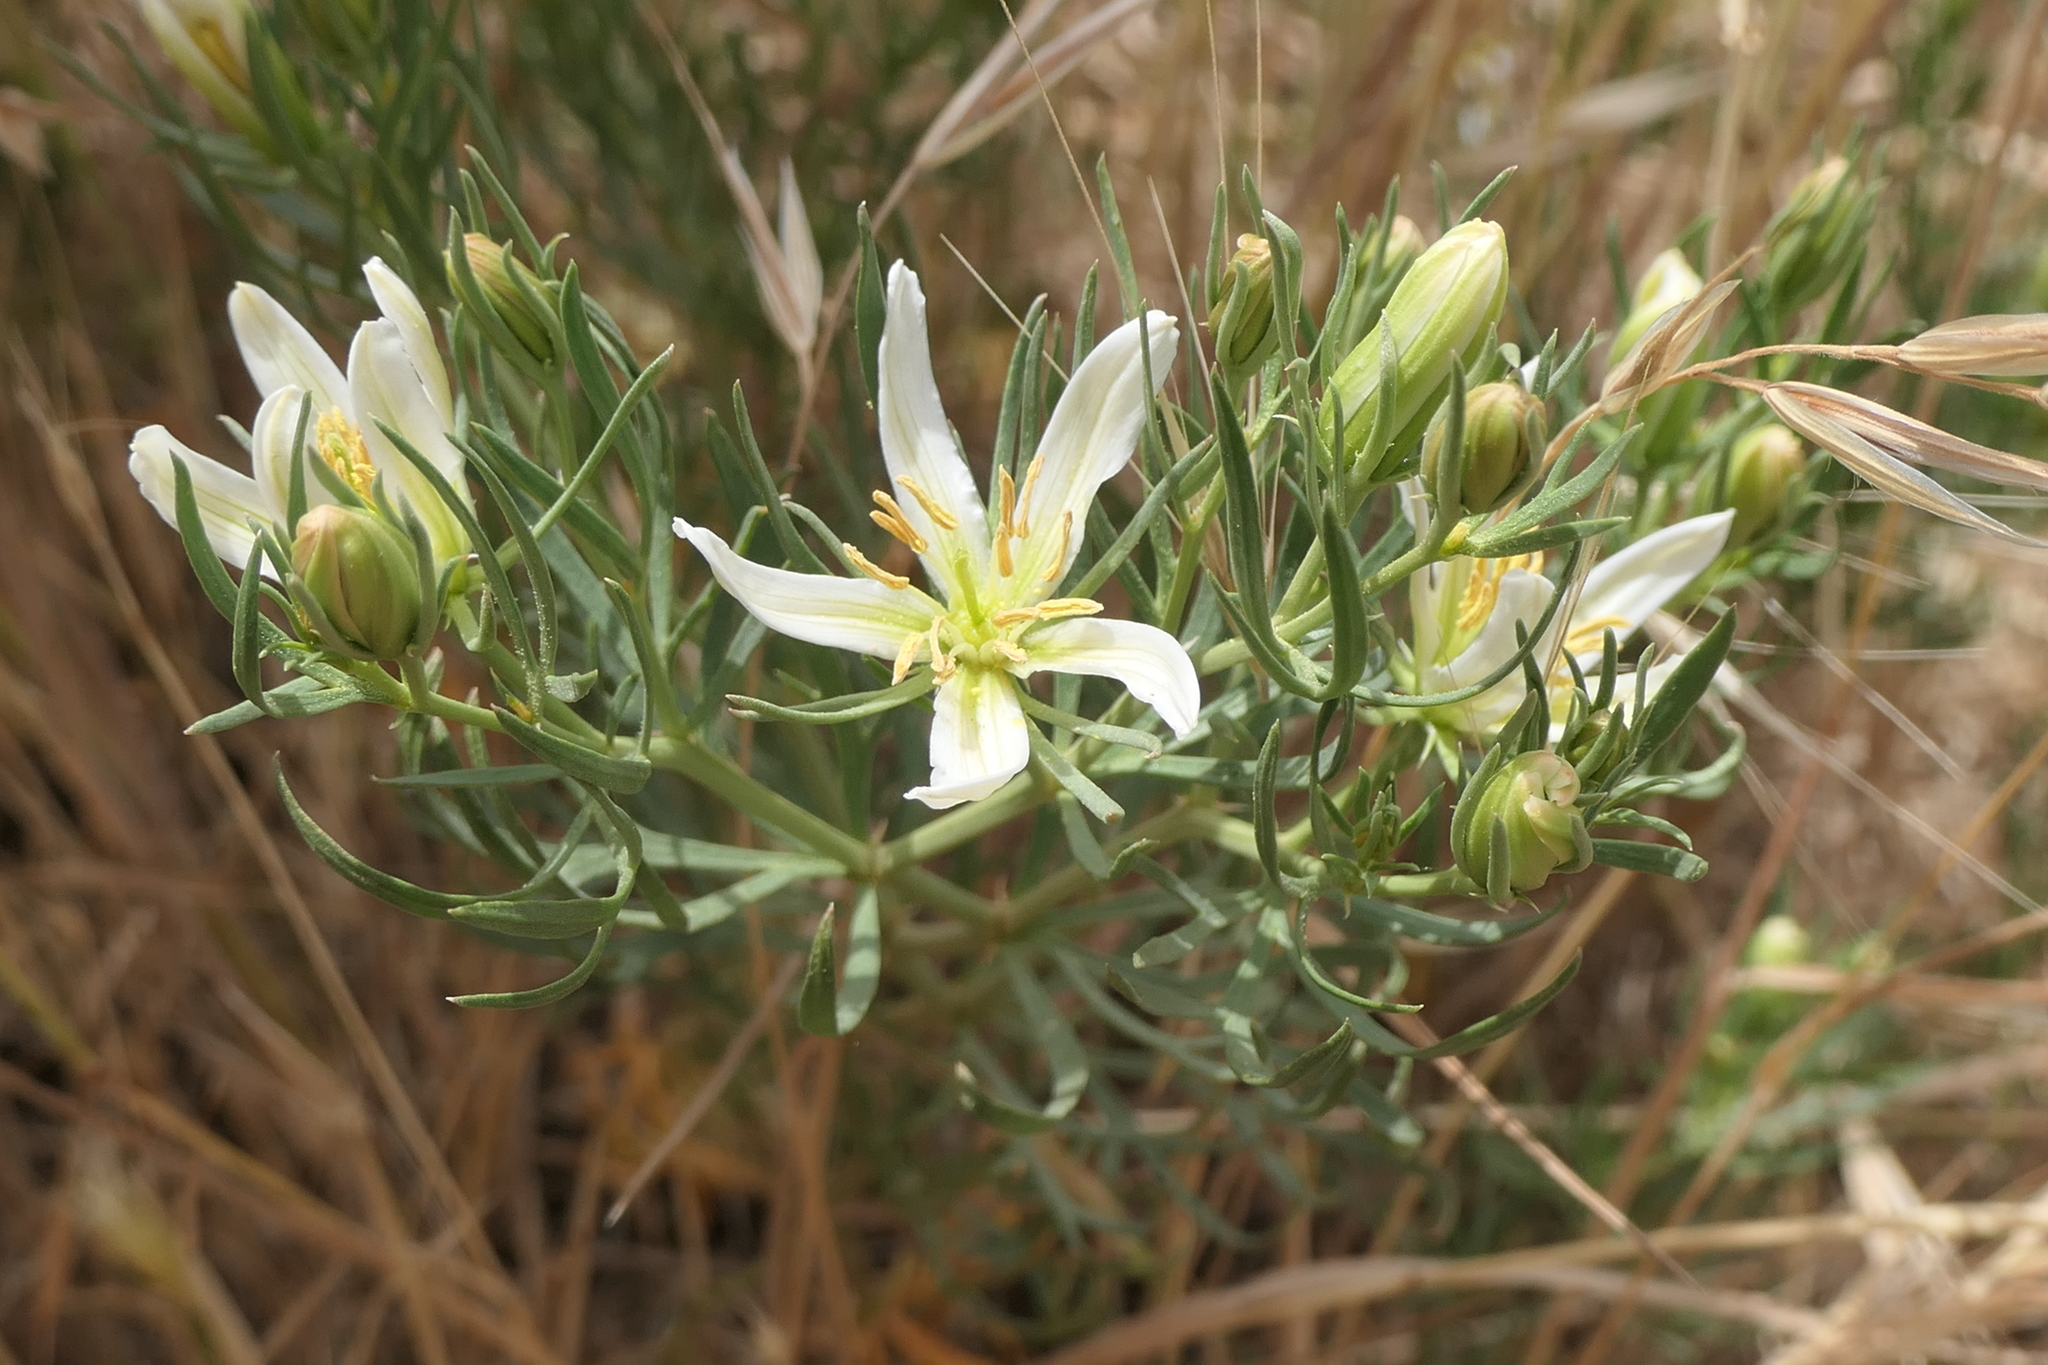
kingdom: Plantae
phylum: Tracheophyta
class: Magnoliopsida
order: Sapindales
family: Tetradiclidaceae
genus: Peganum
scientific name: Peganum harmala
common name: Harmal peganum
